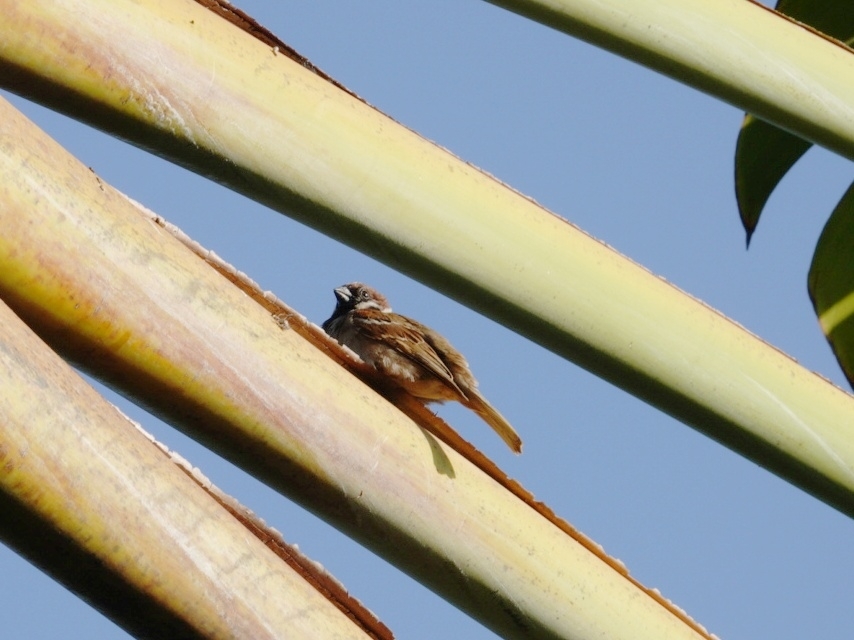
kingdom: Animalia
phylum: Chordata
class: Aves
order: Passeriformes
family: Passeridae
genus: Passer
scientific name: Passer montanus
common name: Eurasian tree sparrow
